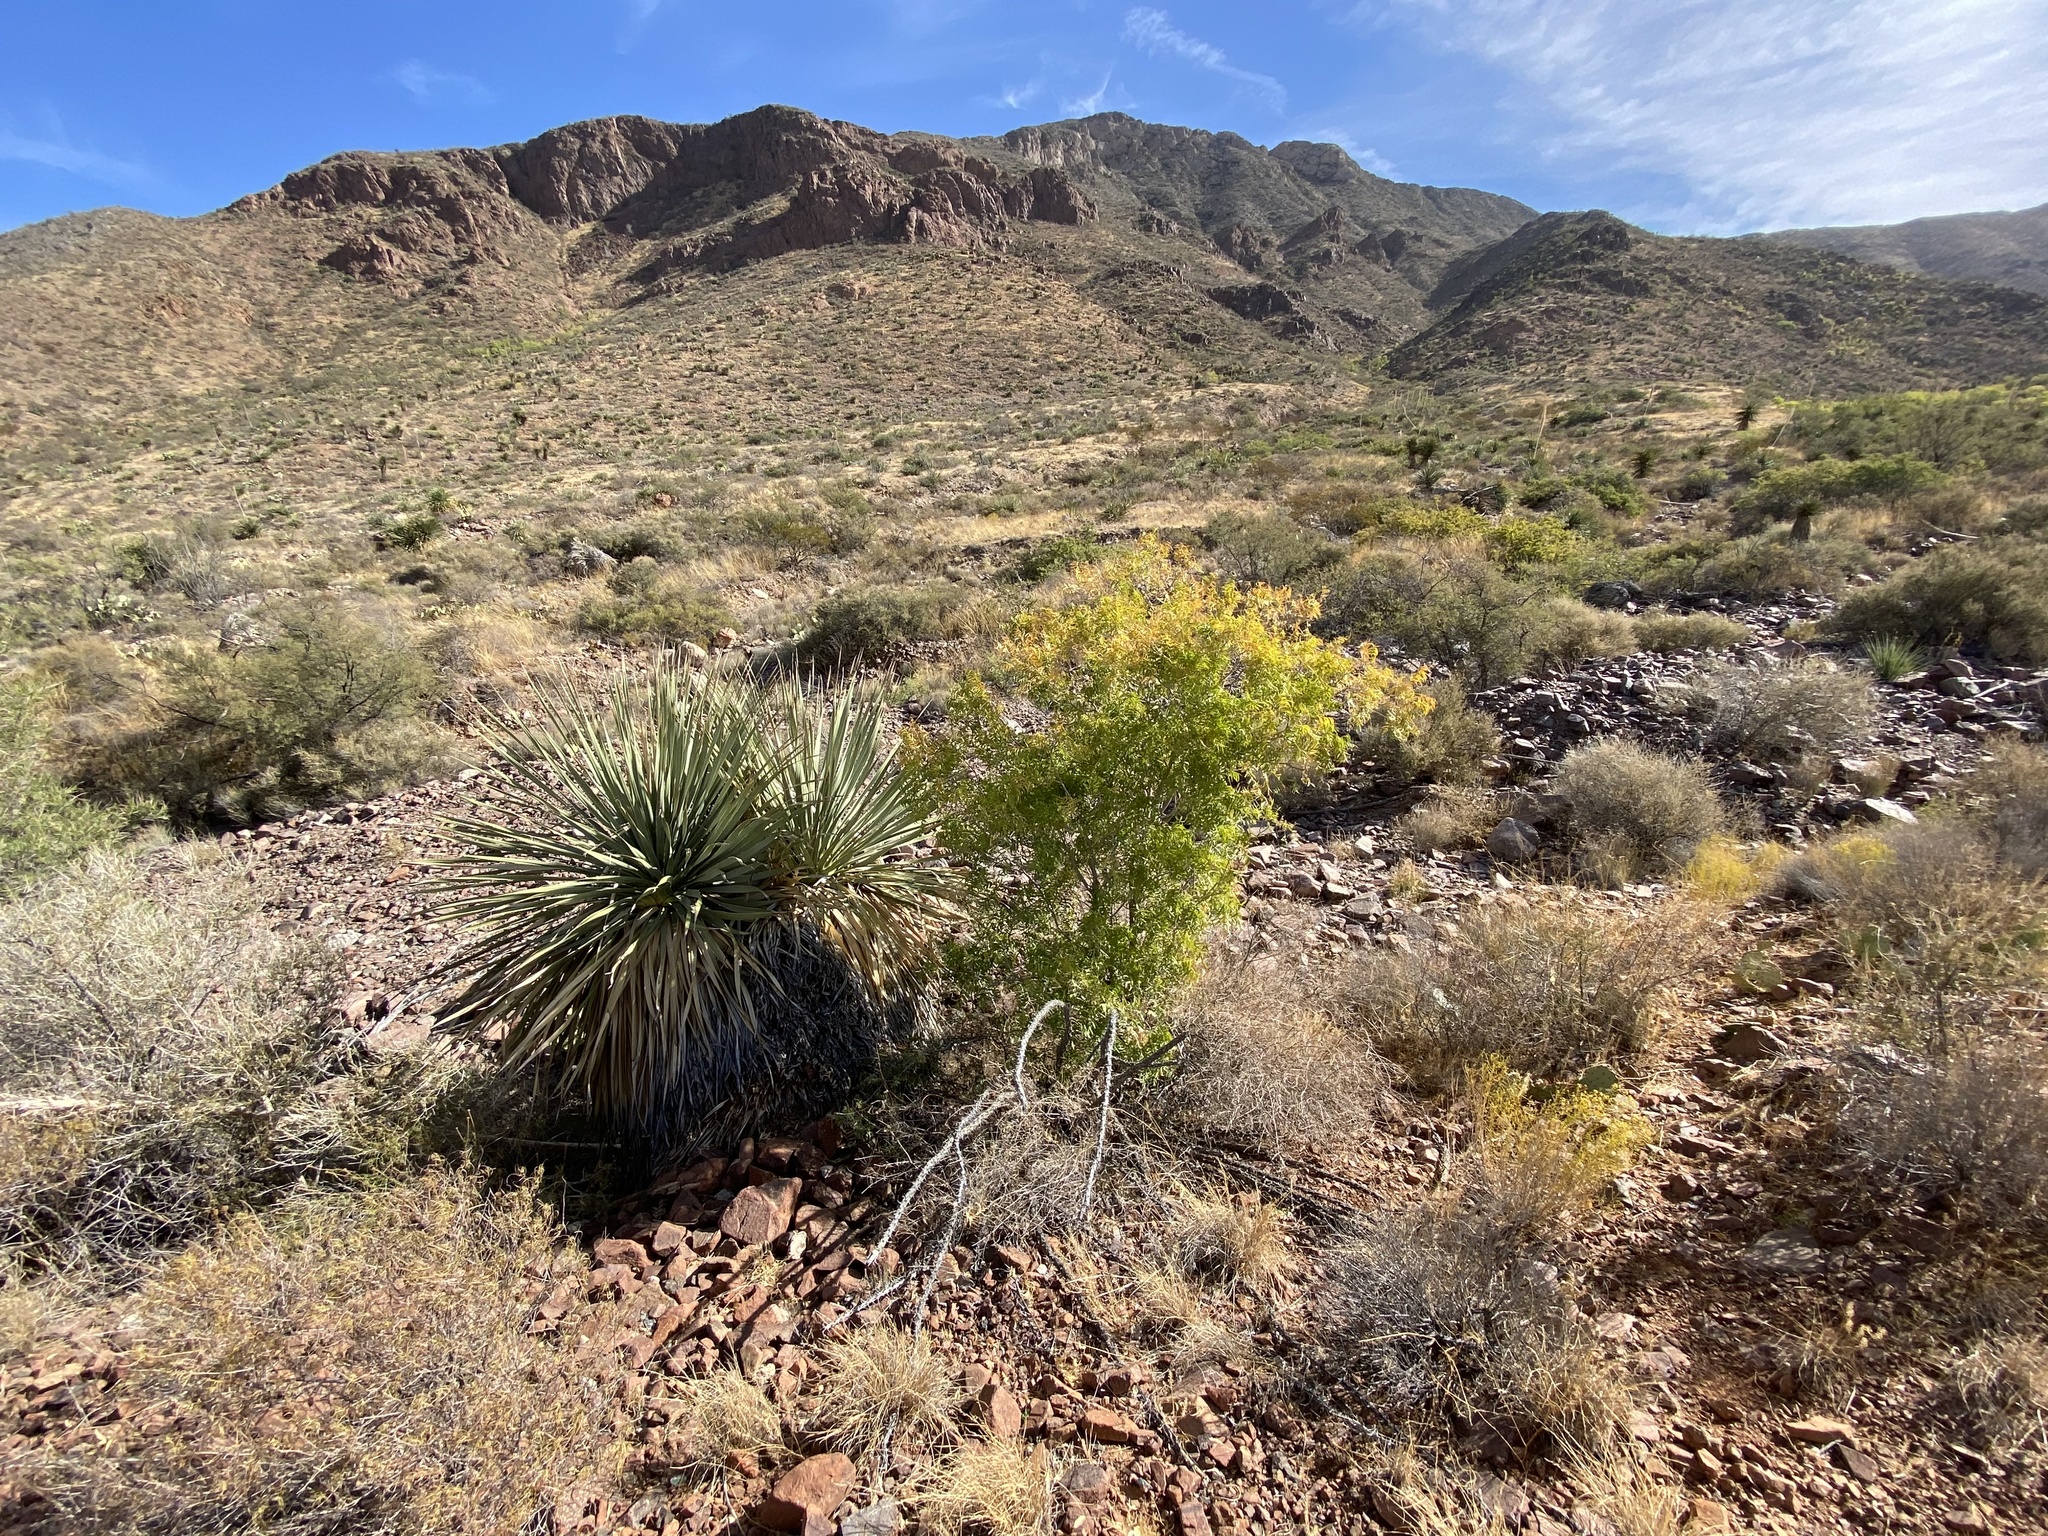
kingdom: Plantae
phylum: Tracheophyta
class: Liliopsida
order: Asparagales
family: Asparagaceae
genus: Dasylirion
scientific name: Dasylirion wheeleri
